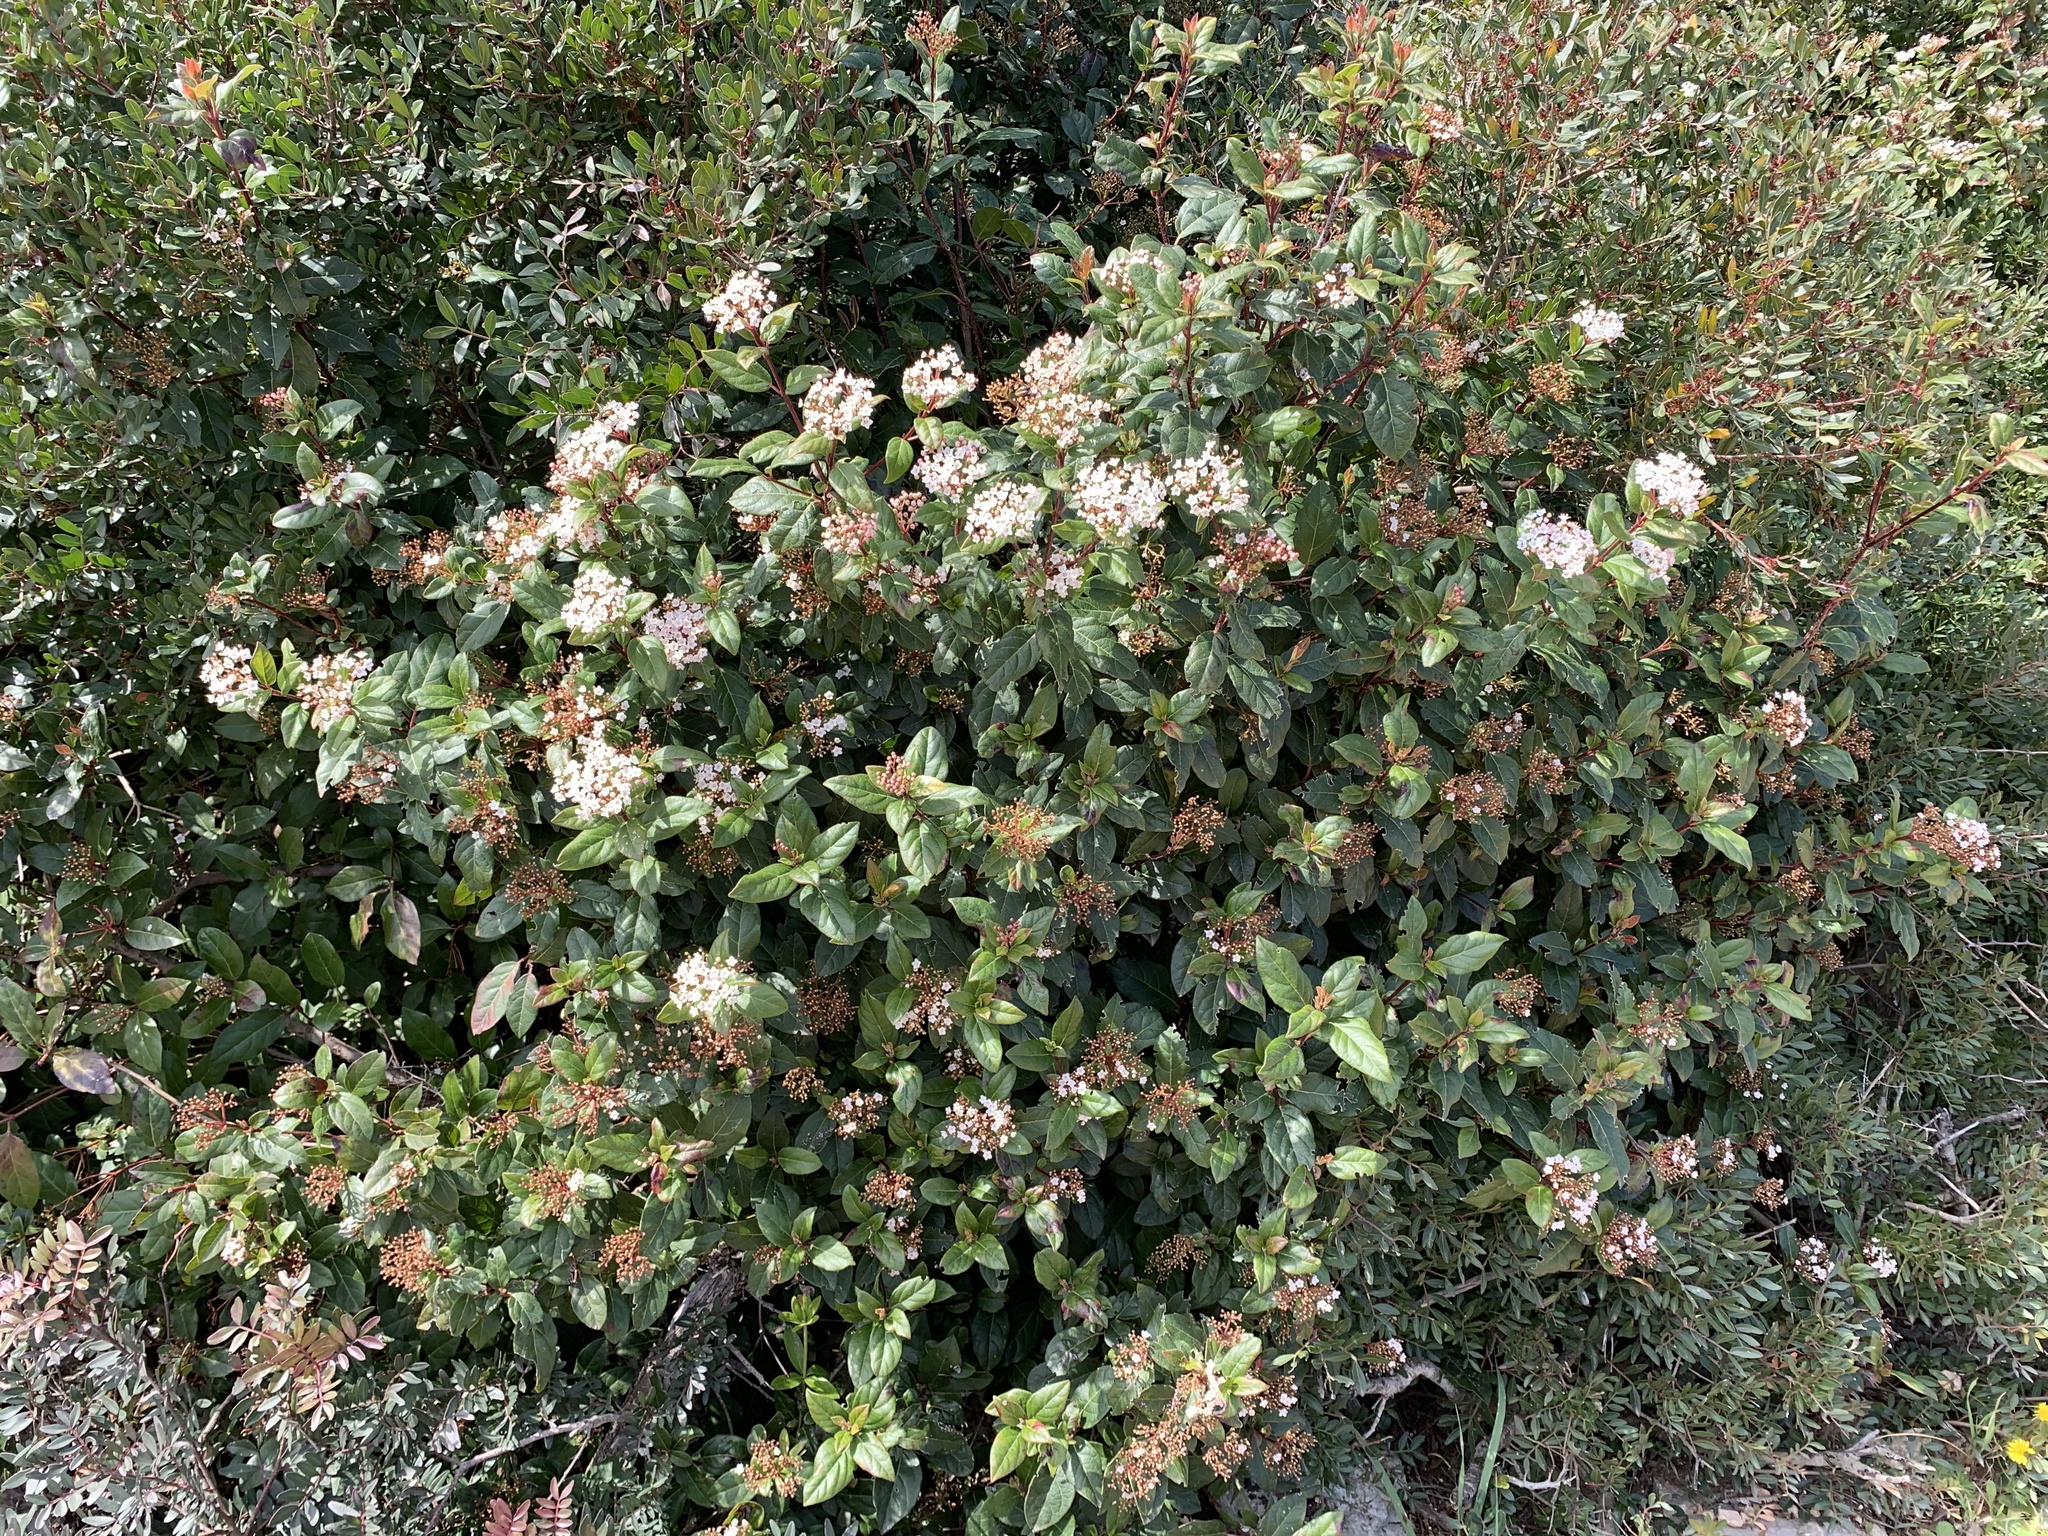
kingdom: Plantae
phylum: Tracheophyta
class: Magnoliopsida
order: Dipsacales
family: Viburnaceae
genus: Viburnum
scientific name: Viburnum tinus
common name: Laurustinus
